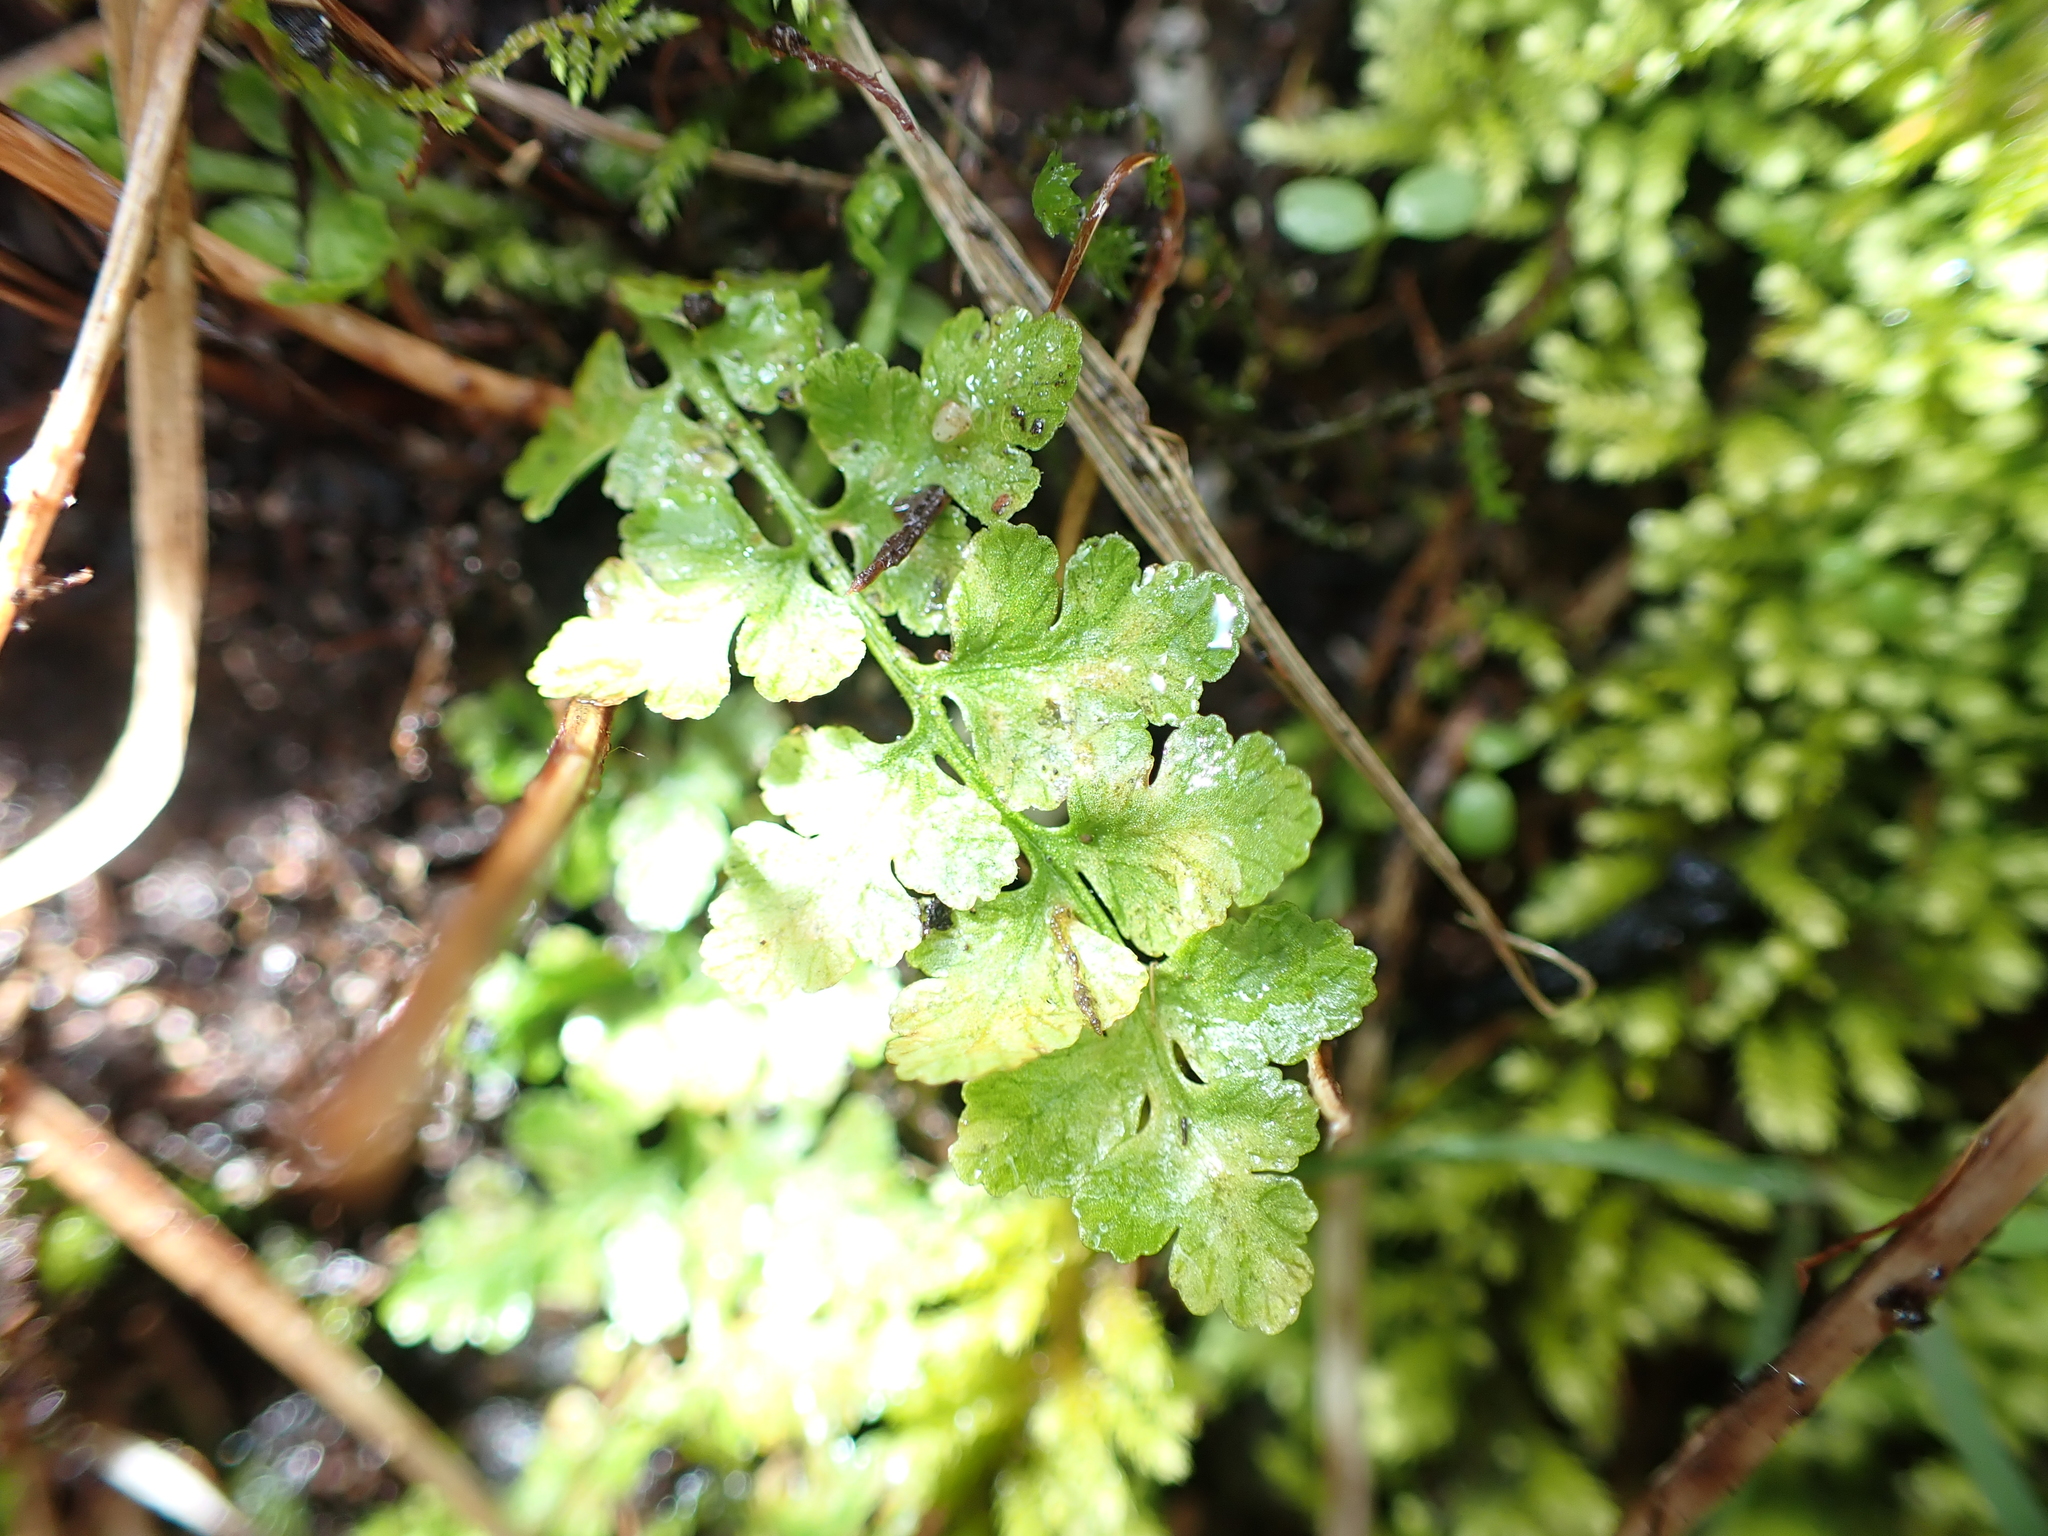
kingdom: Plantae
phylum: Tracheophyta
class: Polypodiopsida
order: Polypodiales
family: Woodsiaceae
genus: Physematium
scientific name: Physematium obtusum
